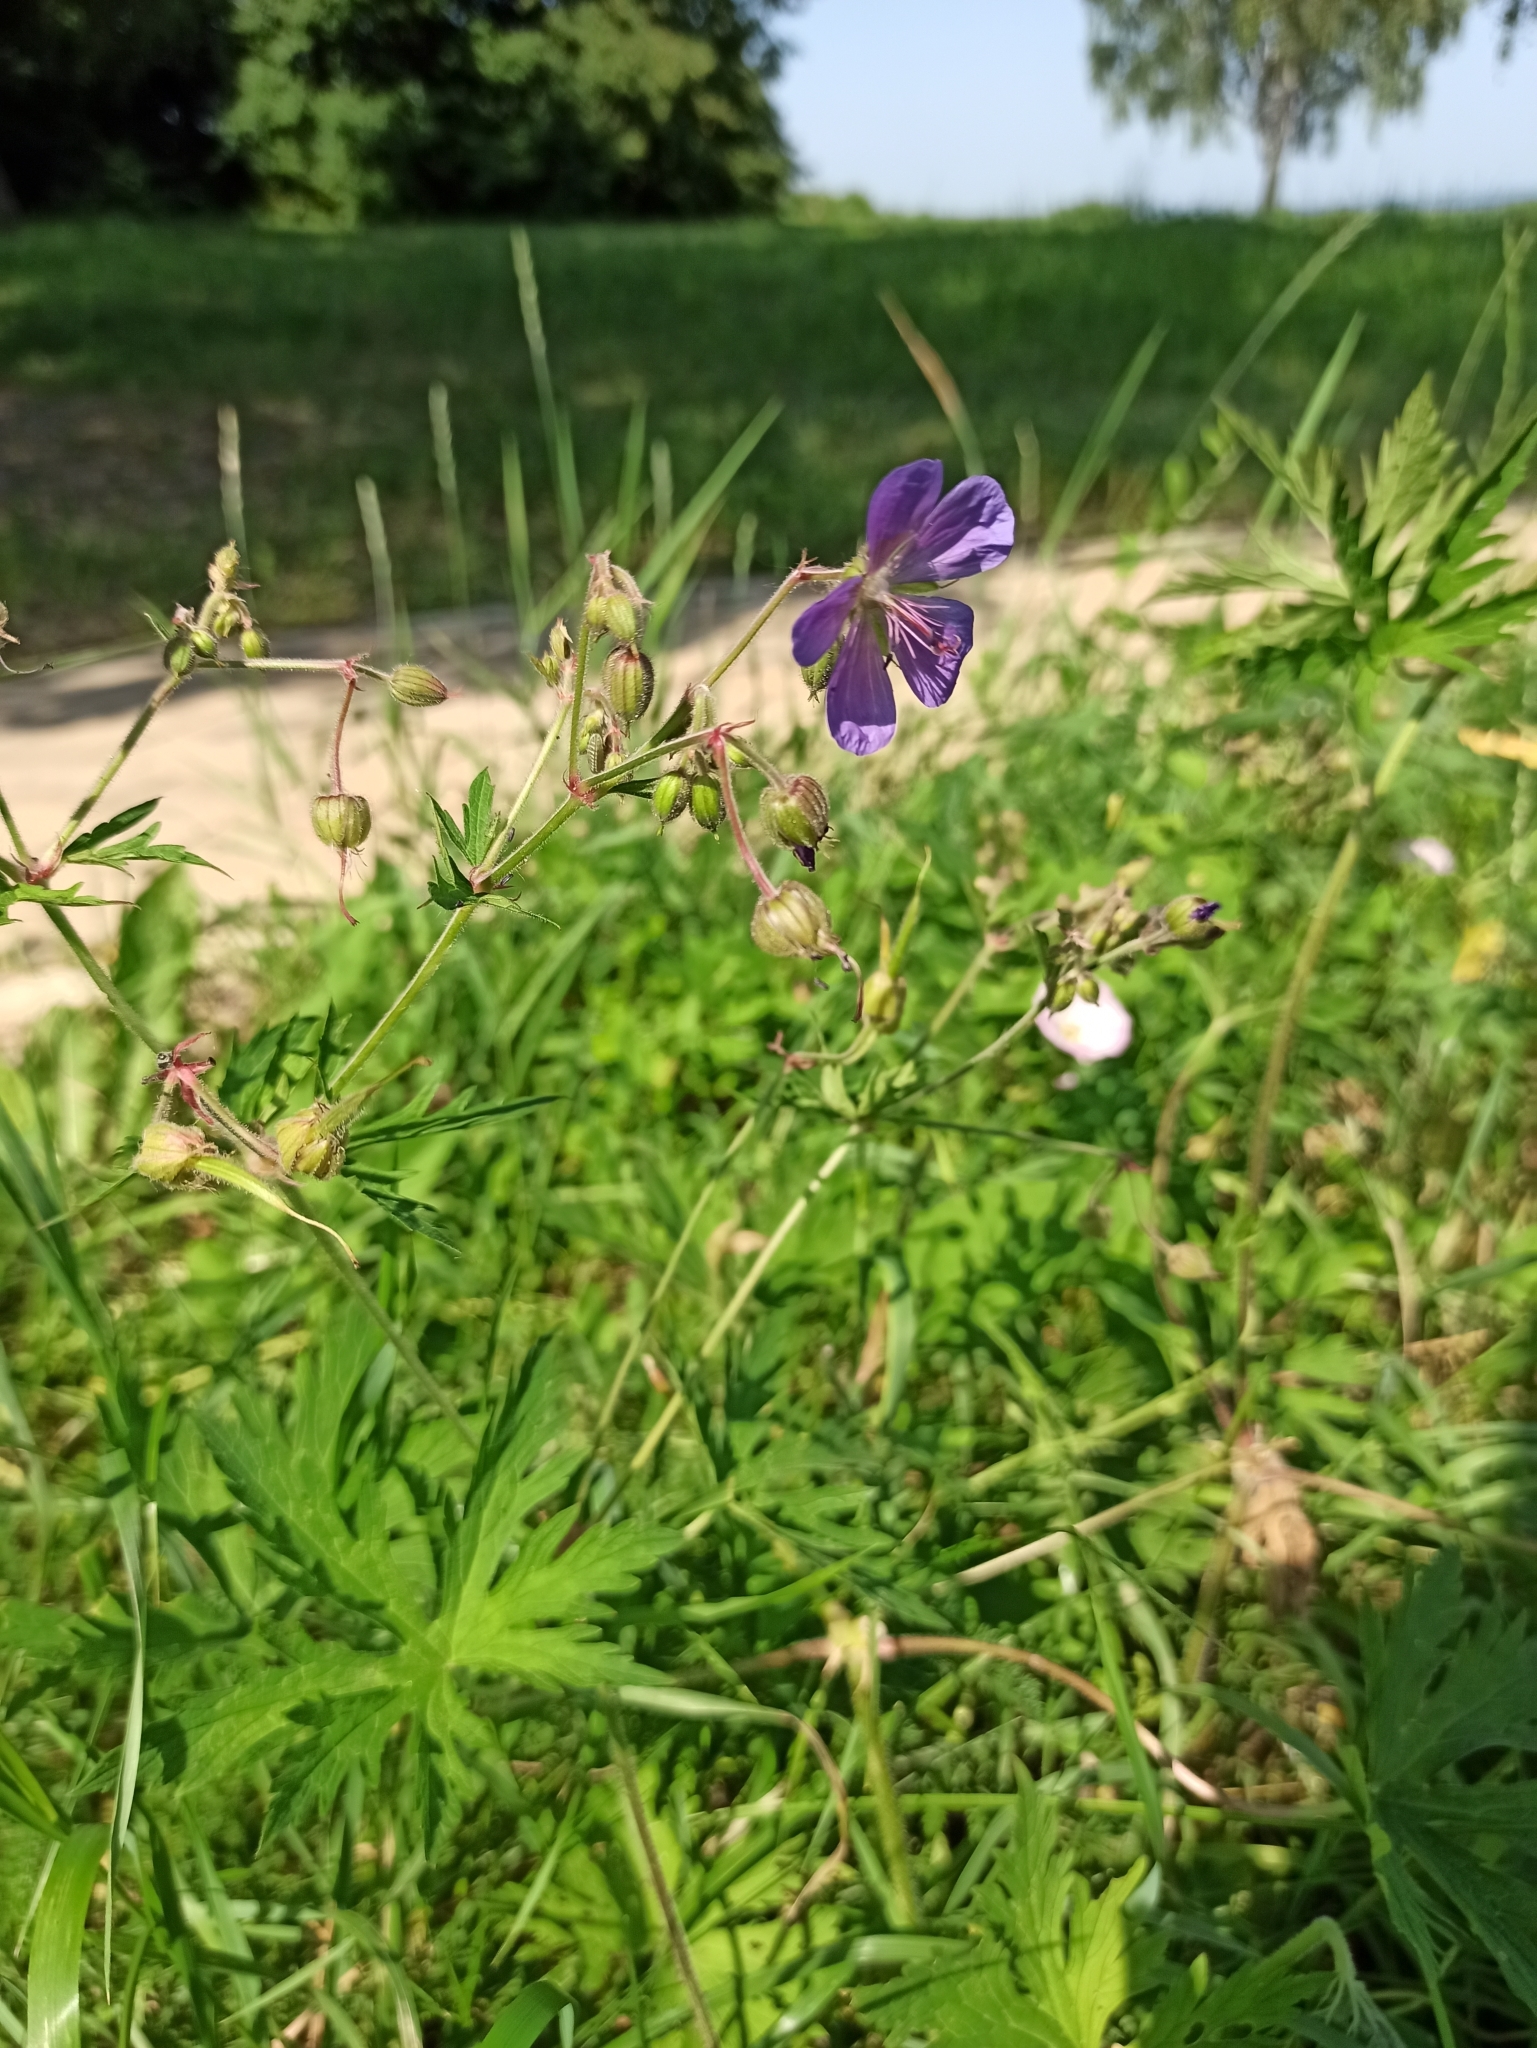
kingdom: Plantae
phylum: Tracheophyta
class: Magnoliopsida
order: Geraniales
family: Geraniaceae
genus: Geranium
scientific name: Geranium pratense
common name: Meadow crane's-bill
